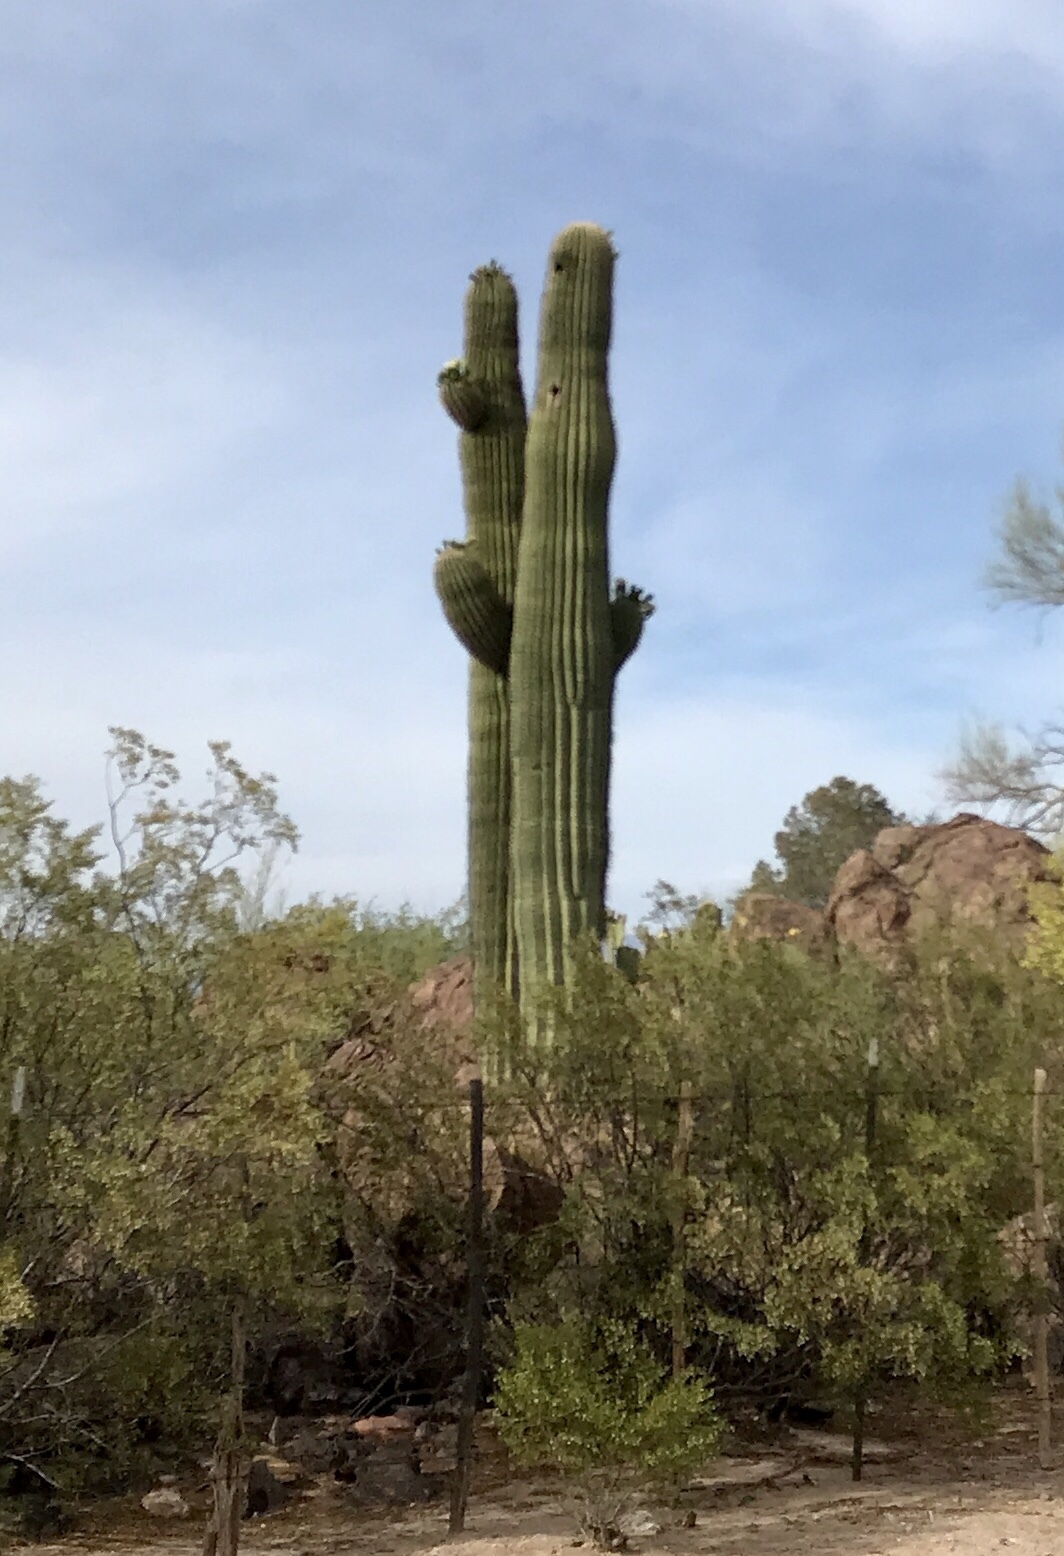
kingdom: Plantae
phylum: Tracheophyta
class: Magnoliopsida
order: Caryophyllales
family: Cactaceae
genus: Carnegiea
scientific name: Carnegiea gigantea
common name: Saguaro
